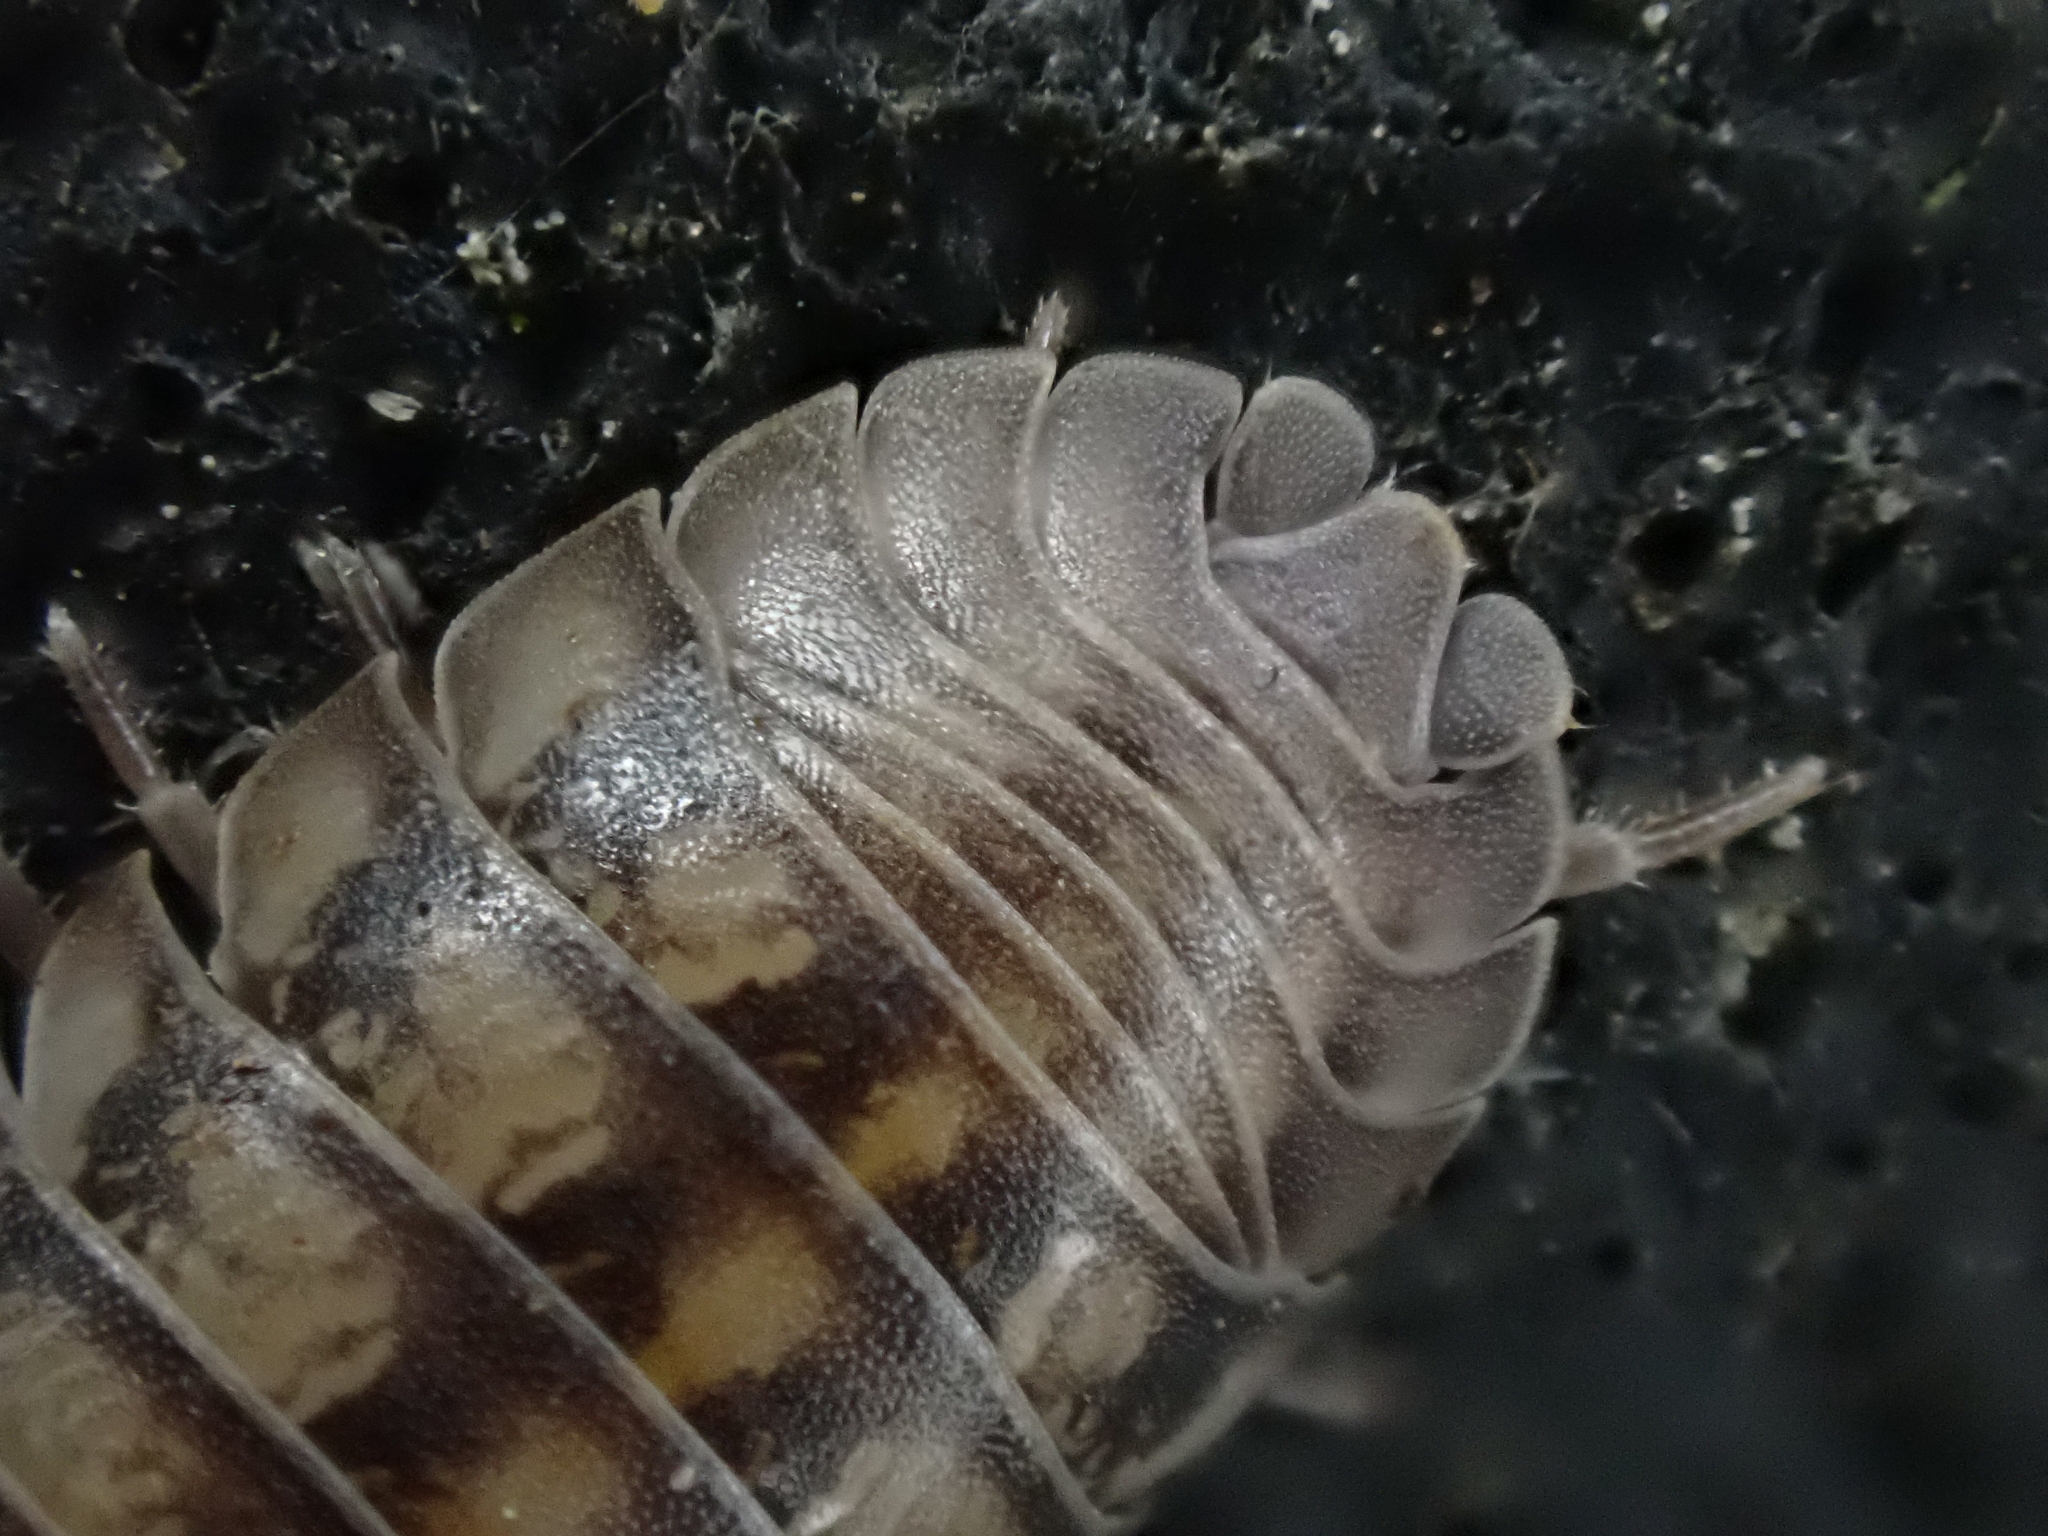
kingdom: Animalia
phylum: Arthropoda
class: Malacostraca
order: Isopoda
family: Armadillidiidae
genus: Armadillidium
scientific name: Armadillidium nasatum
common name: Isopod
